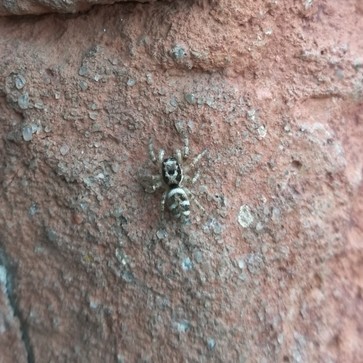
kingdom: Animalia
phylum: Arthropoda
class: Arachnida
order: Araneae
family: Salticidae
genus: Salticus
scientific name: Salticus scenicus
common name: Zebra jumper
